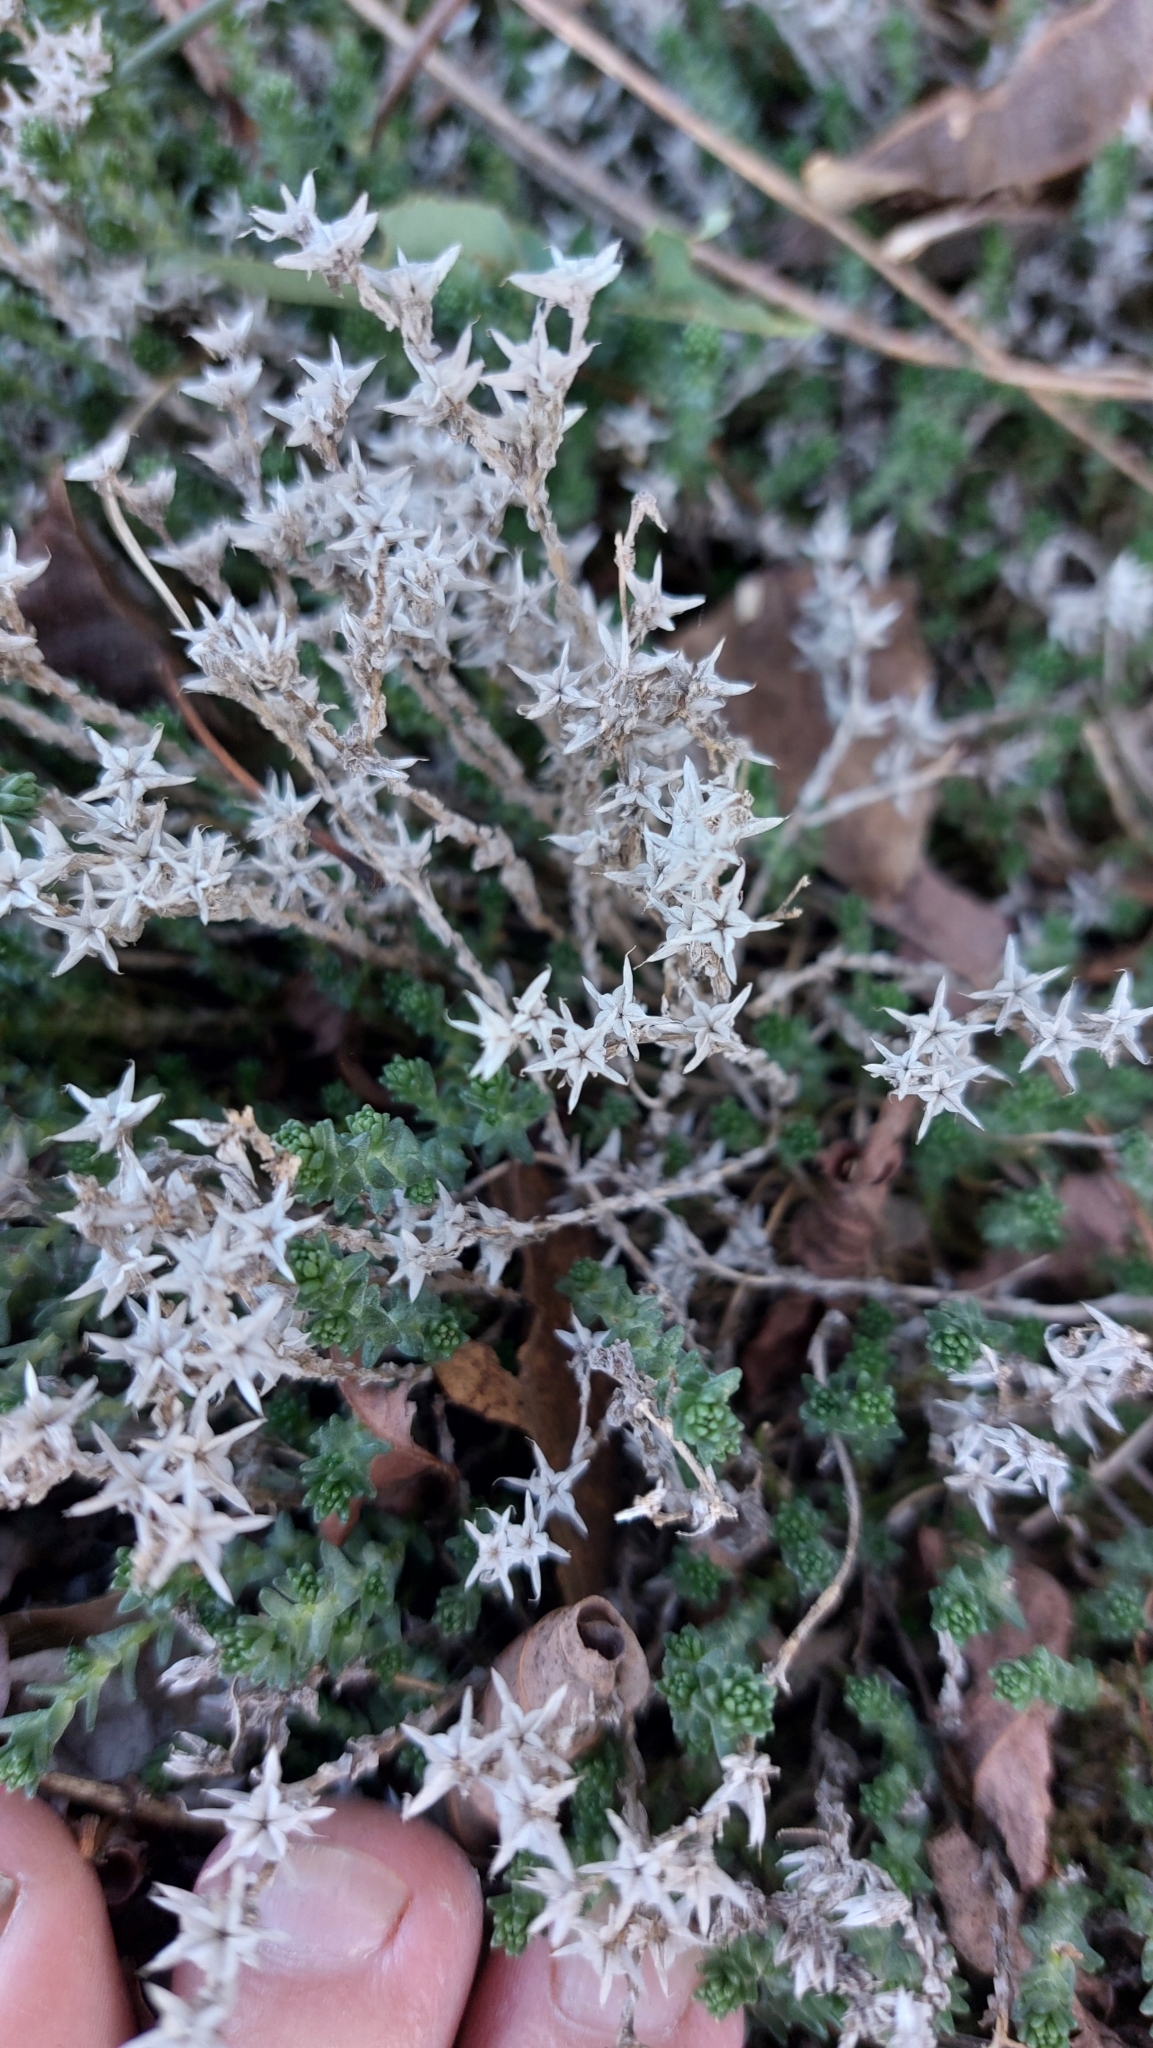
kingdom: Plantae
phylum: Tracheophyta
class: Magnoliopsida
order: Saxifragales
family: Crassulaceae
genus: Sedum
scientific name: Sedum acre
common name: Biting stonecrop
